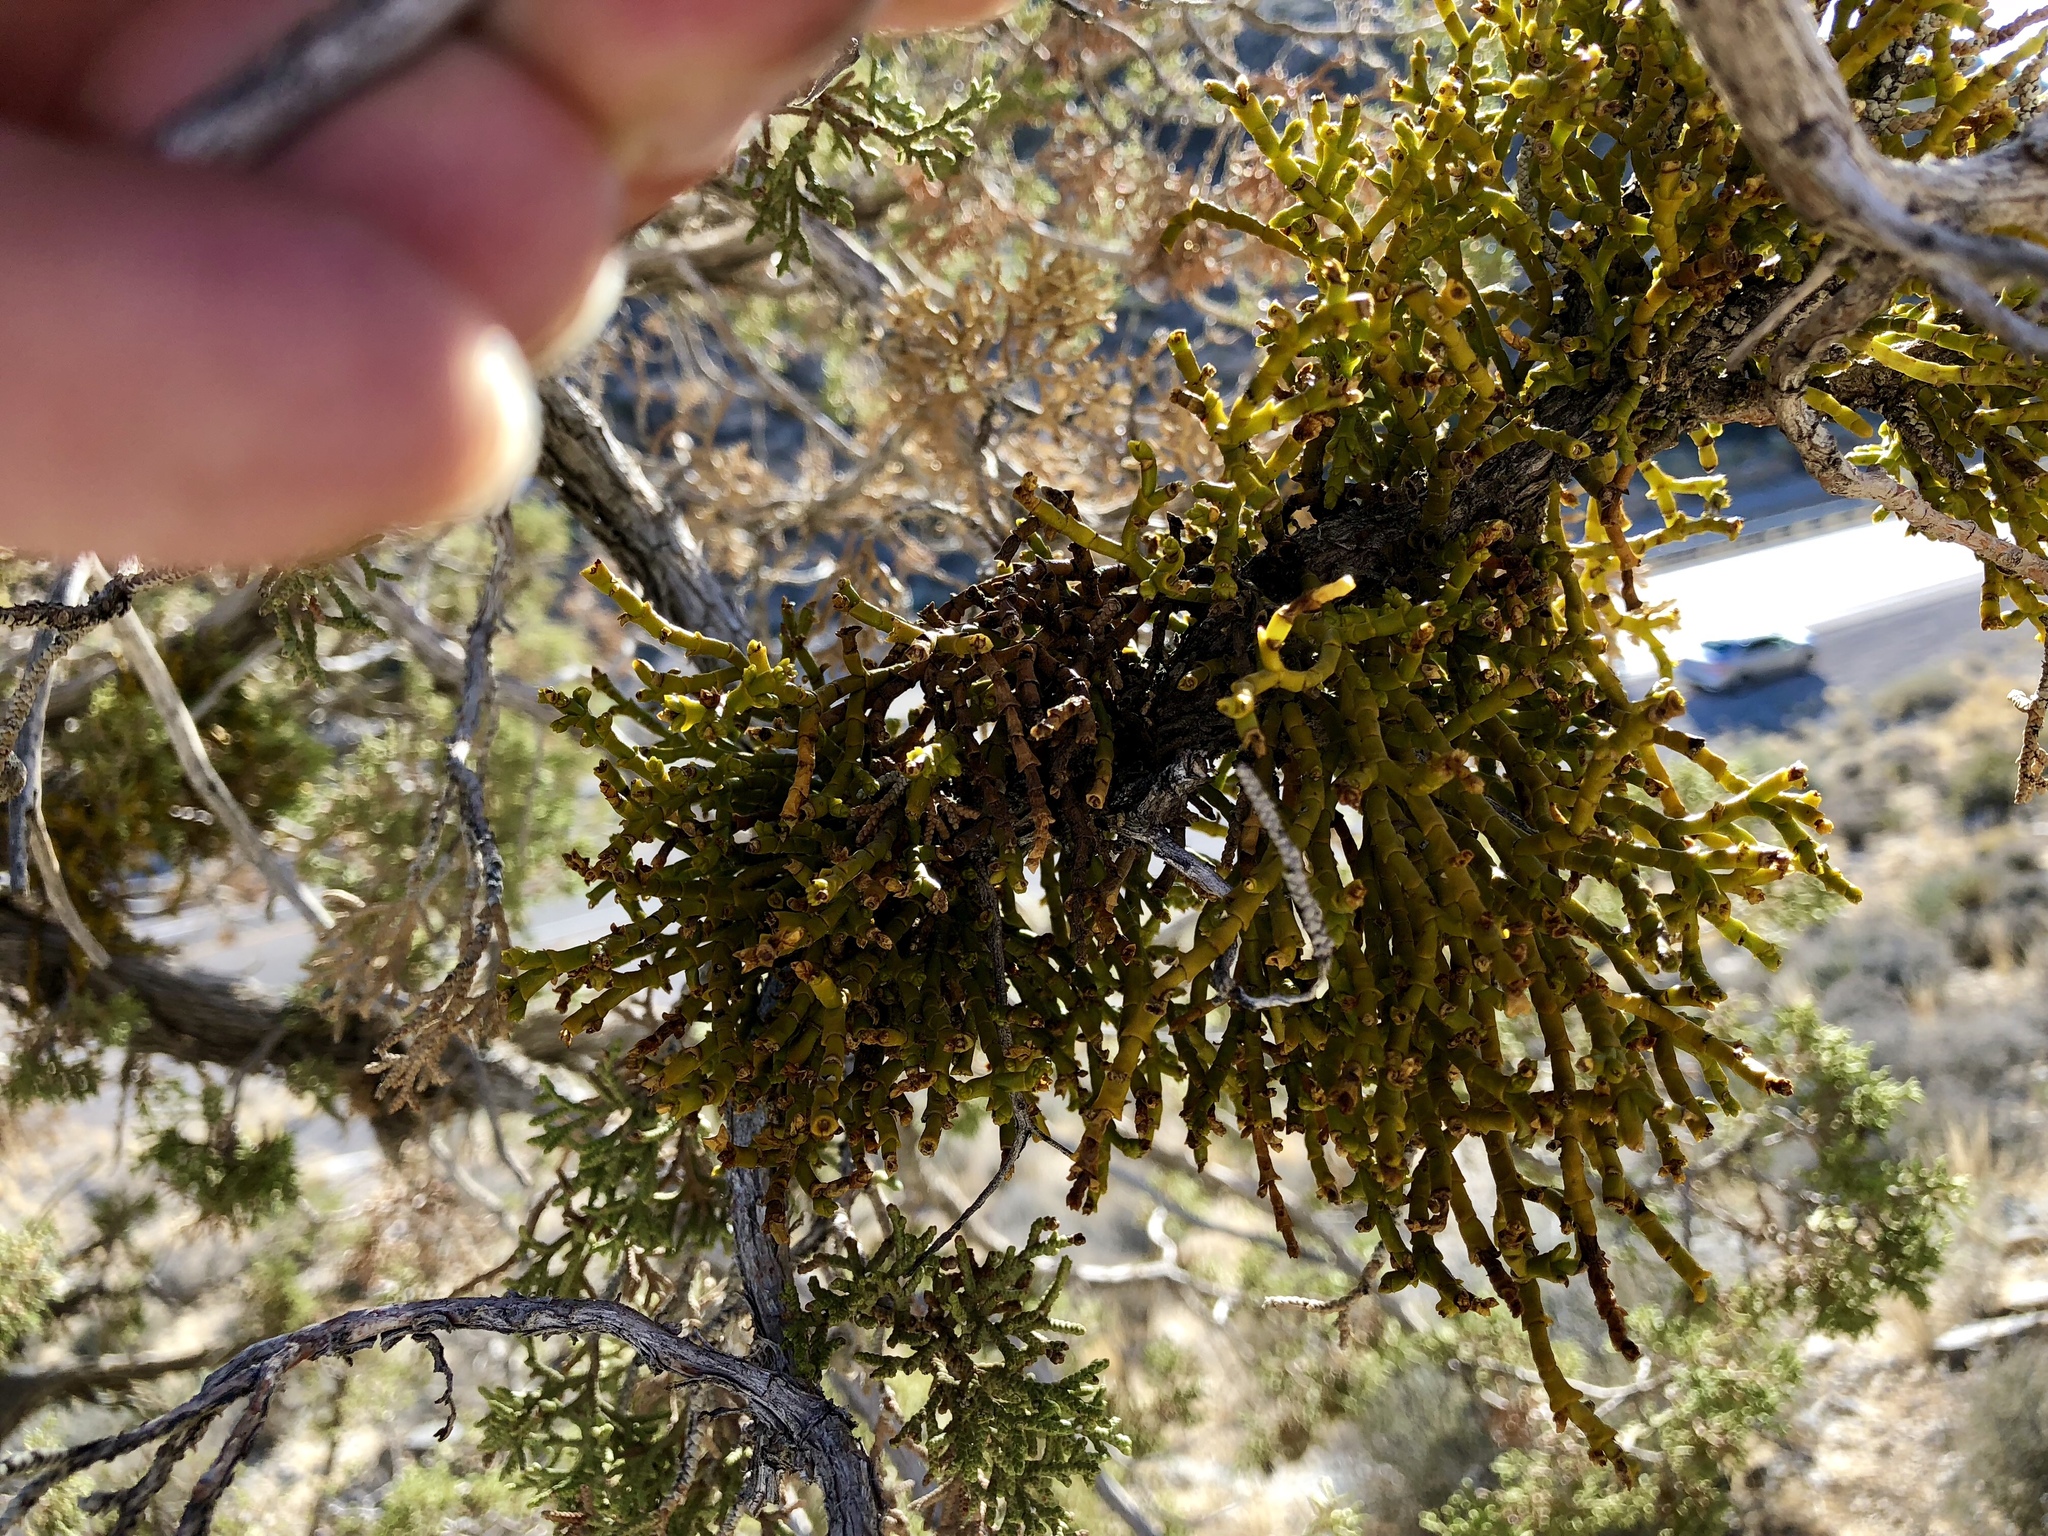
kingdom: Plantae
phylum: Tracheophyta
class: Magnoliopsida
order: Santalales
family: Viscaceae
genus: Phoradendron
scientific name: Phoradendron juniperinum
